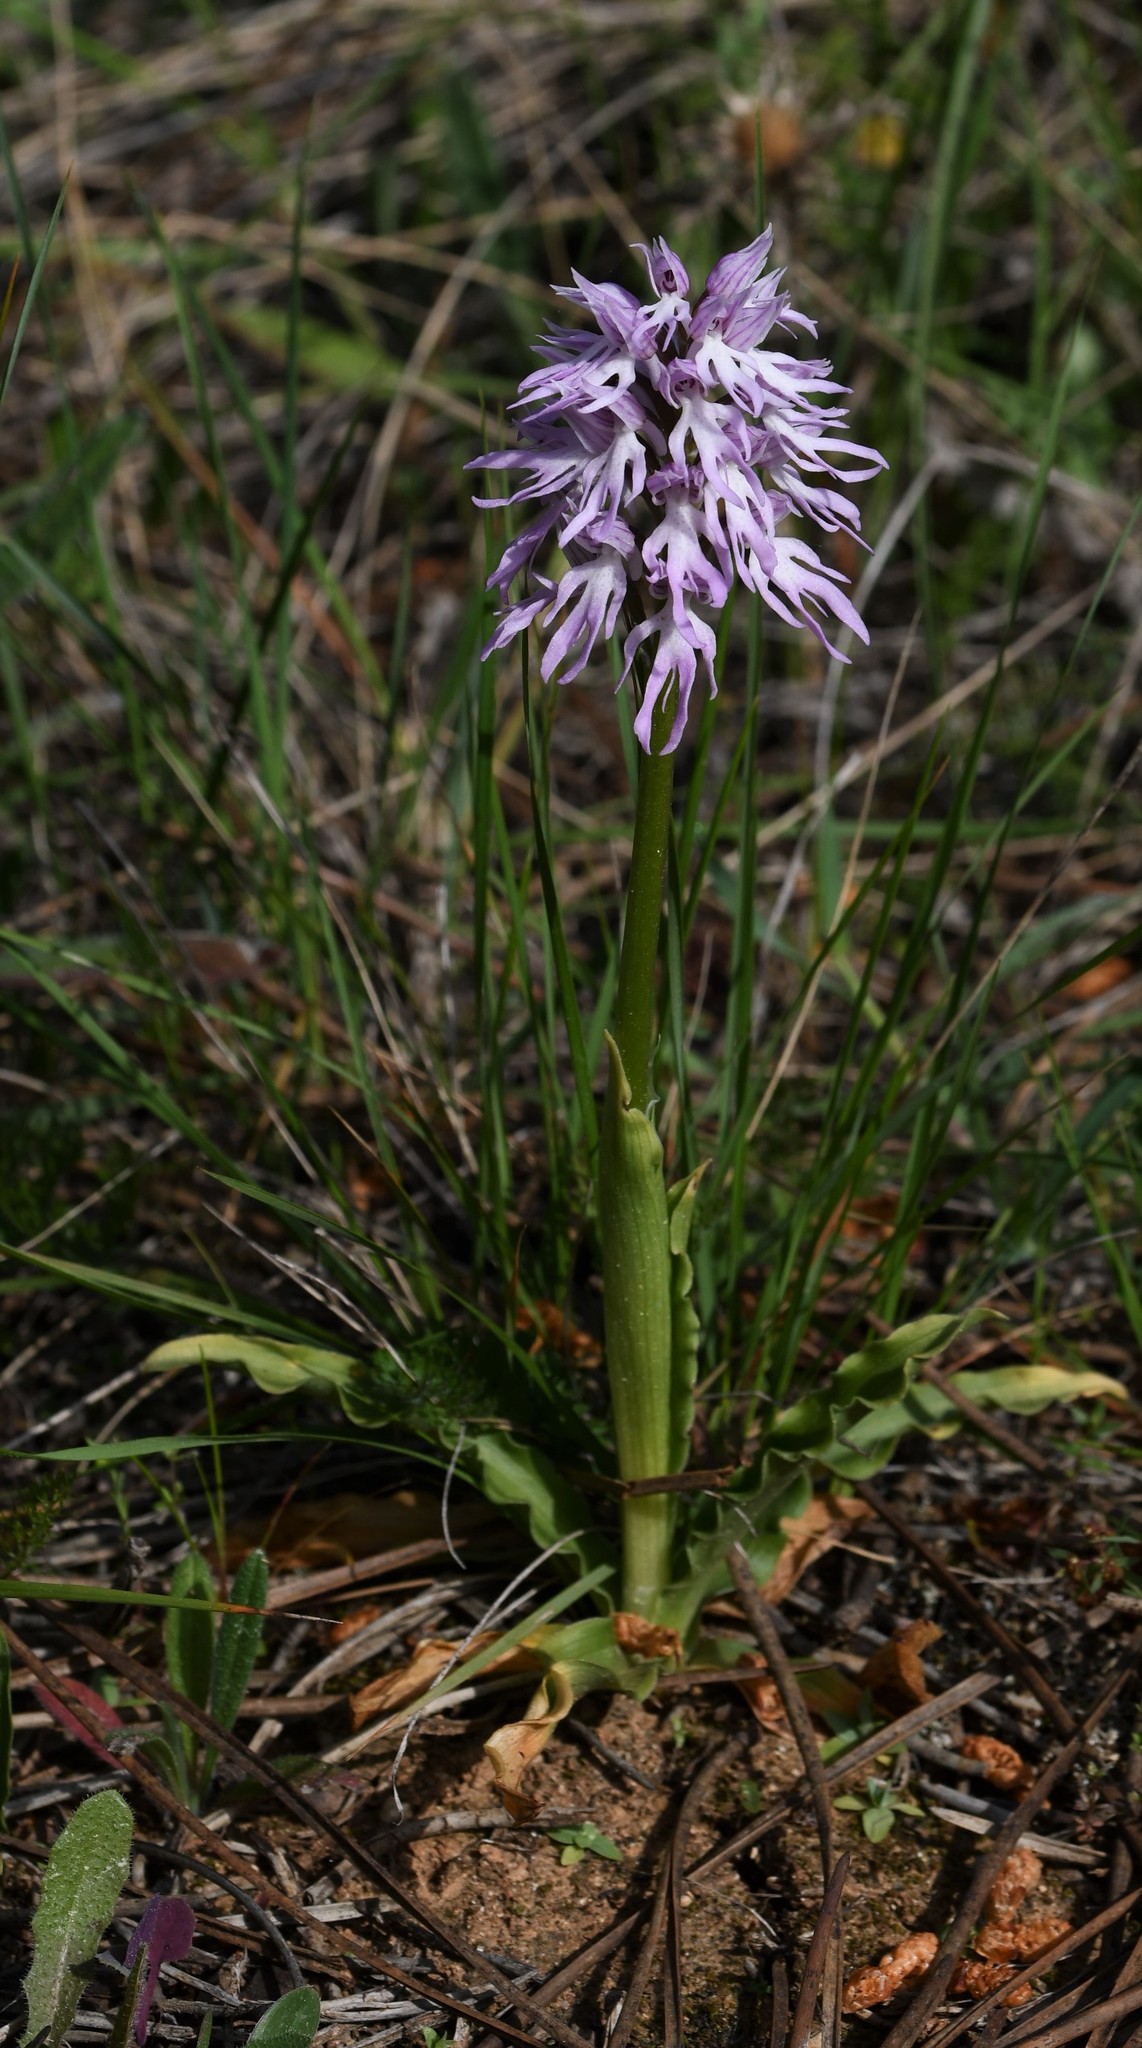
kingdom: Plantae
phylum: Tracheophyta
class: Liliopsida
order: Asparagales
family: Orchidaceae
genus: Orchis
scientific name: Orchis italica
